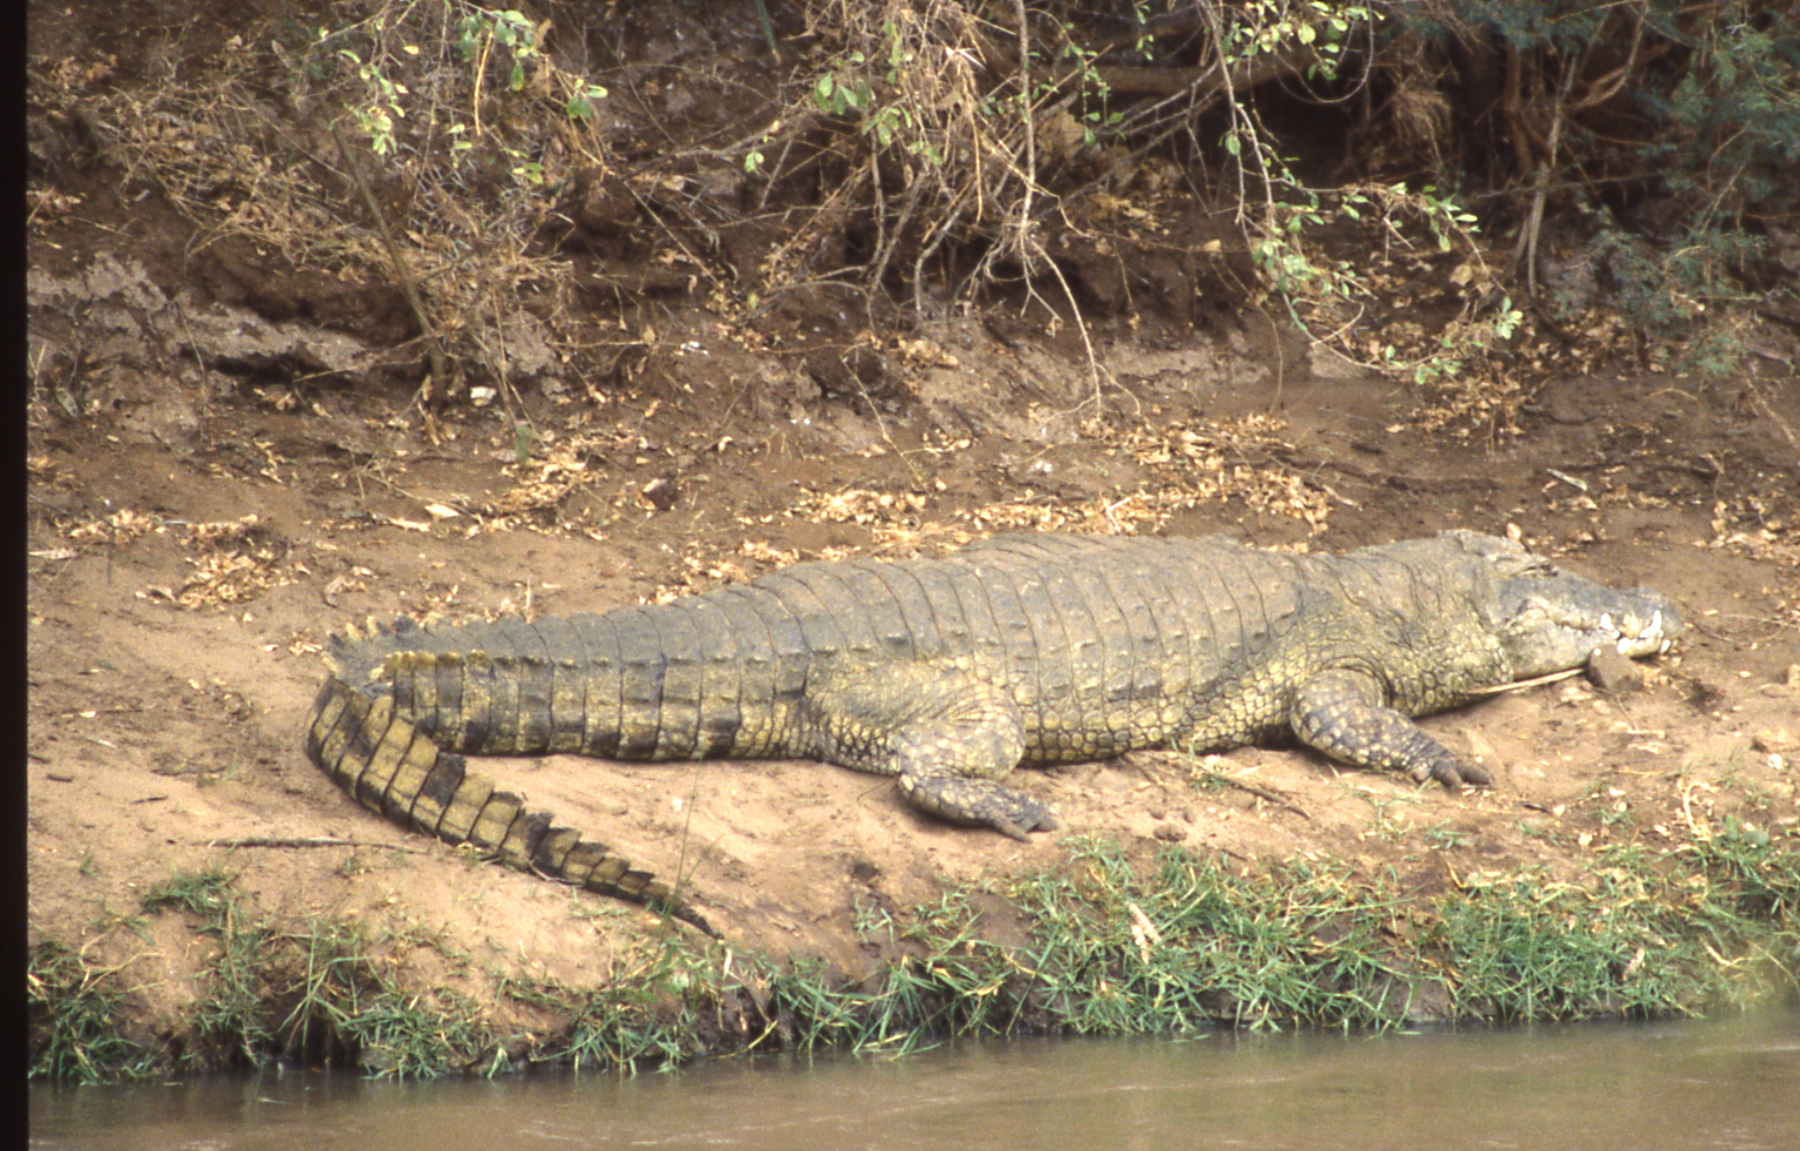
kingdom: Animalia
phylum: Chordata
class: Crocodylia
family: Crocodylidae
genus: Crocodylus
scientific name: Crocodylus niloticus
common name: Nile crocodile
